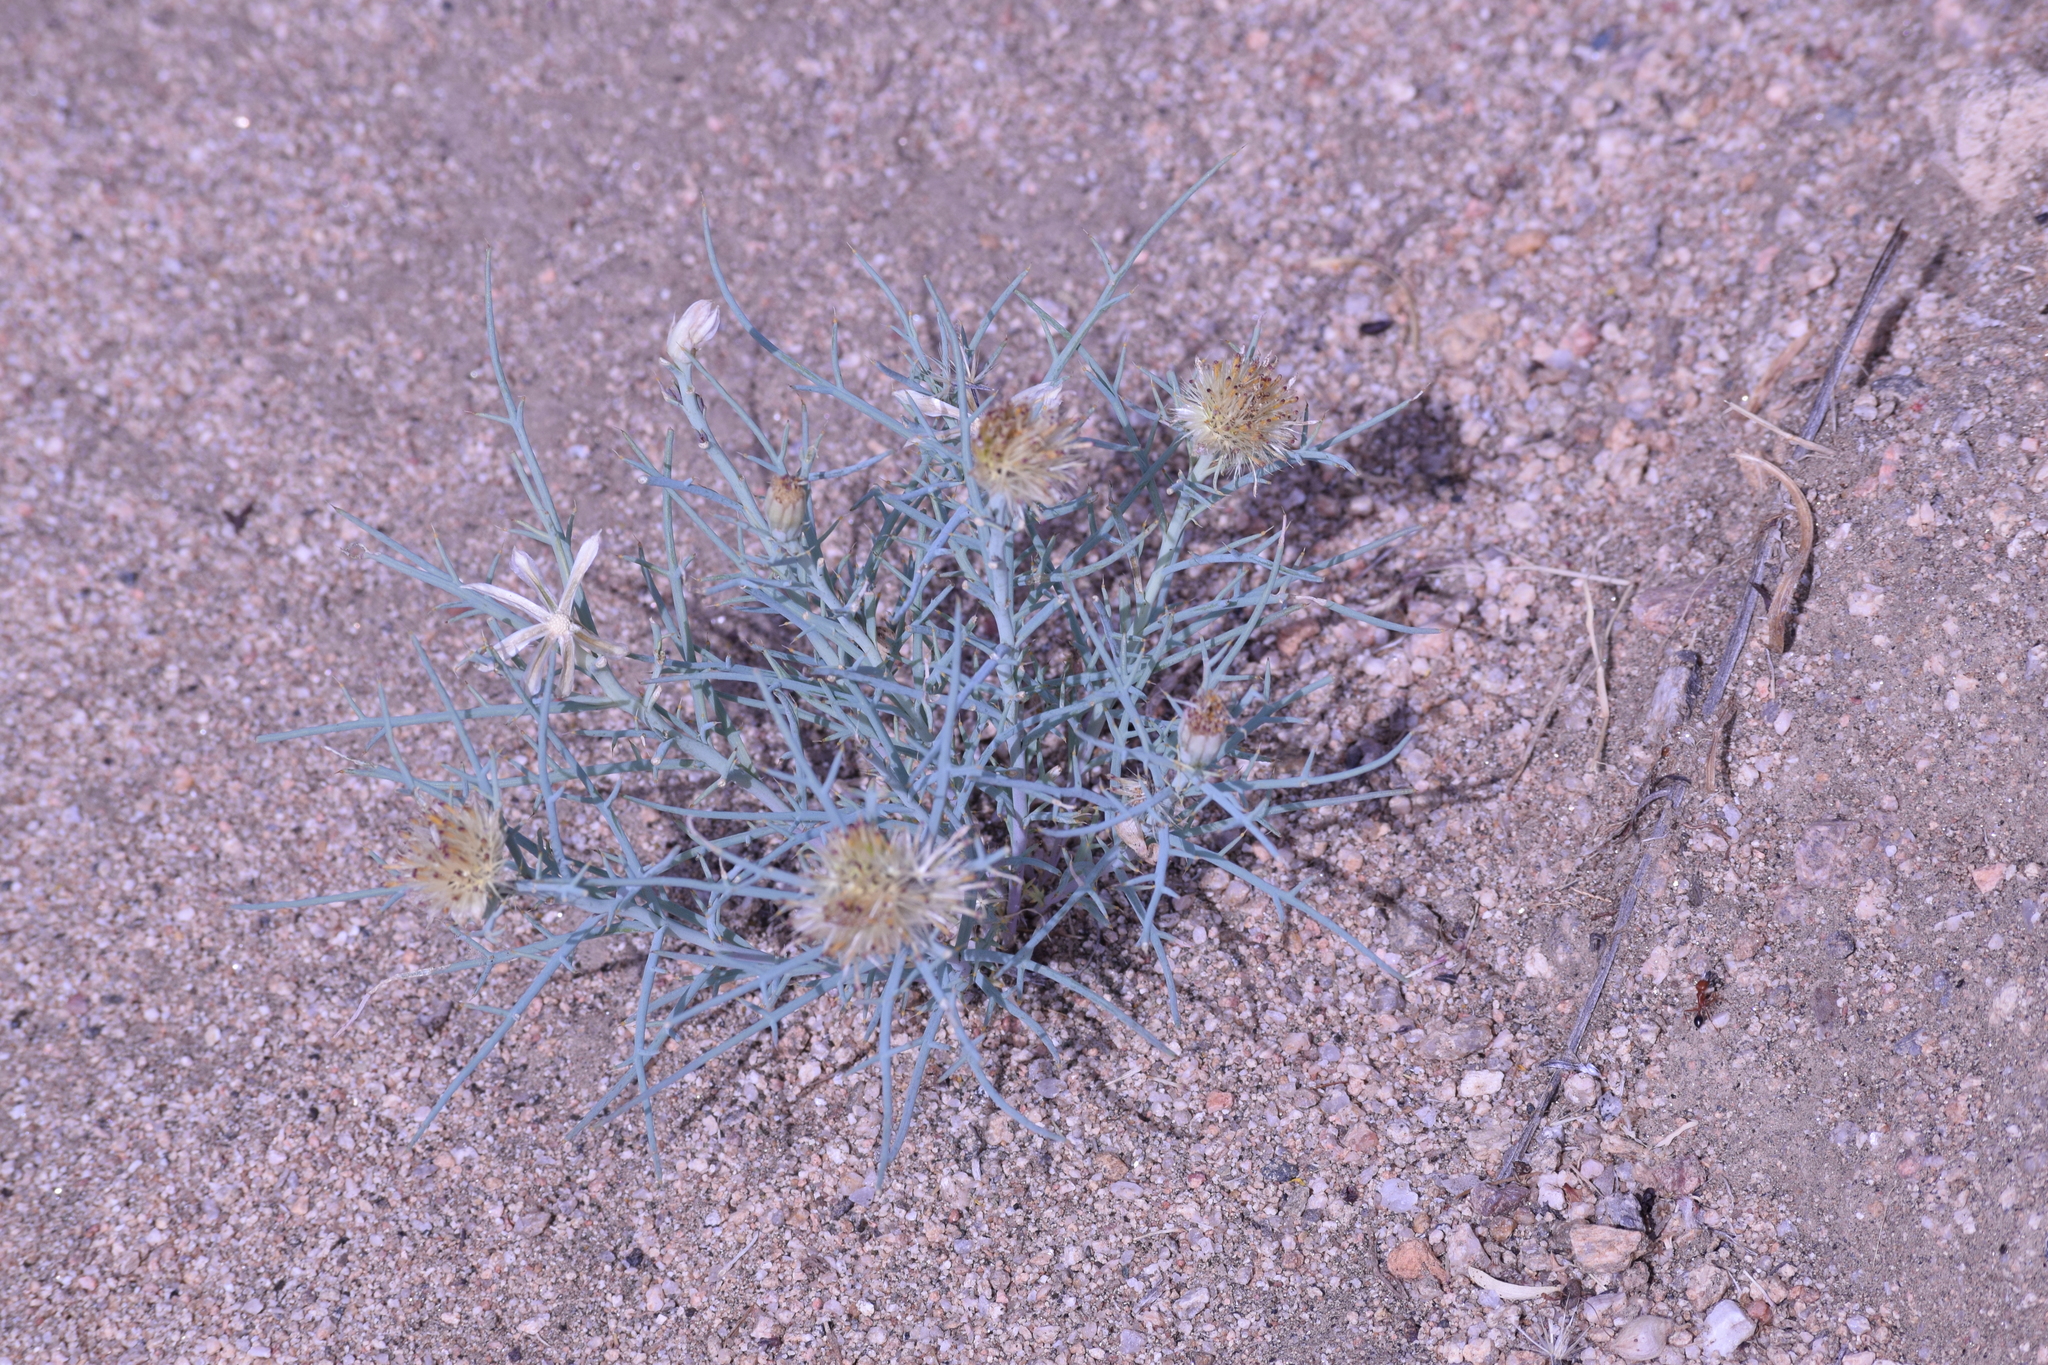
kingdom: Plantae
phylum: Tracheophyta
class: Magnoliopsida
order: Asterales
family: Asteraceae
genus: Nicolletia
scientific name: Nicolletia occidentalis
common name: Hole-in-the-sand-plant
